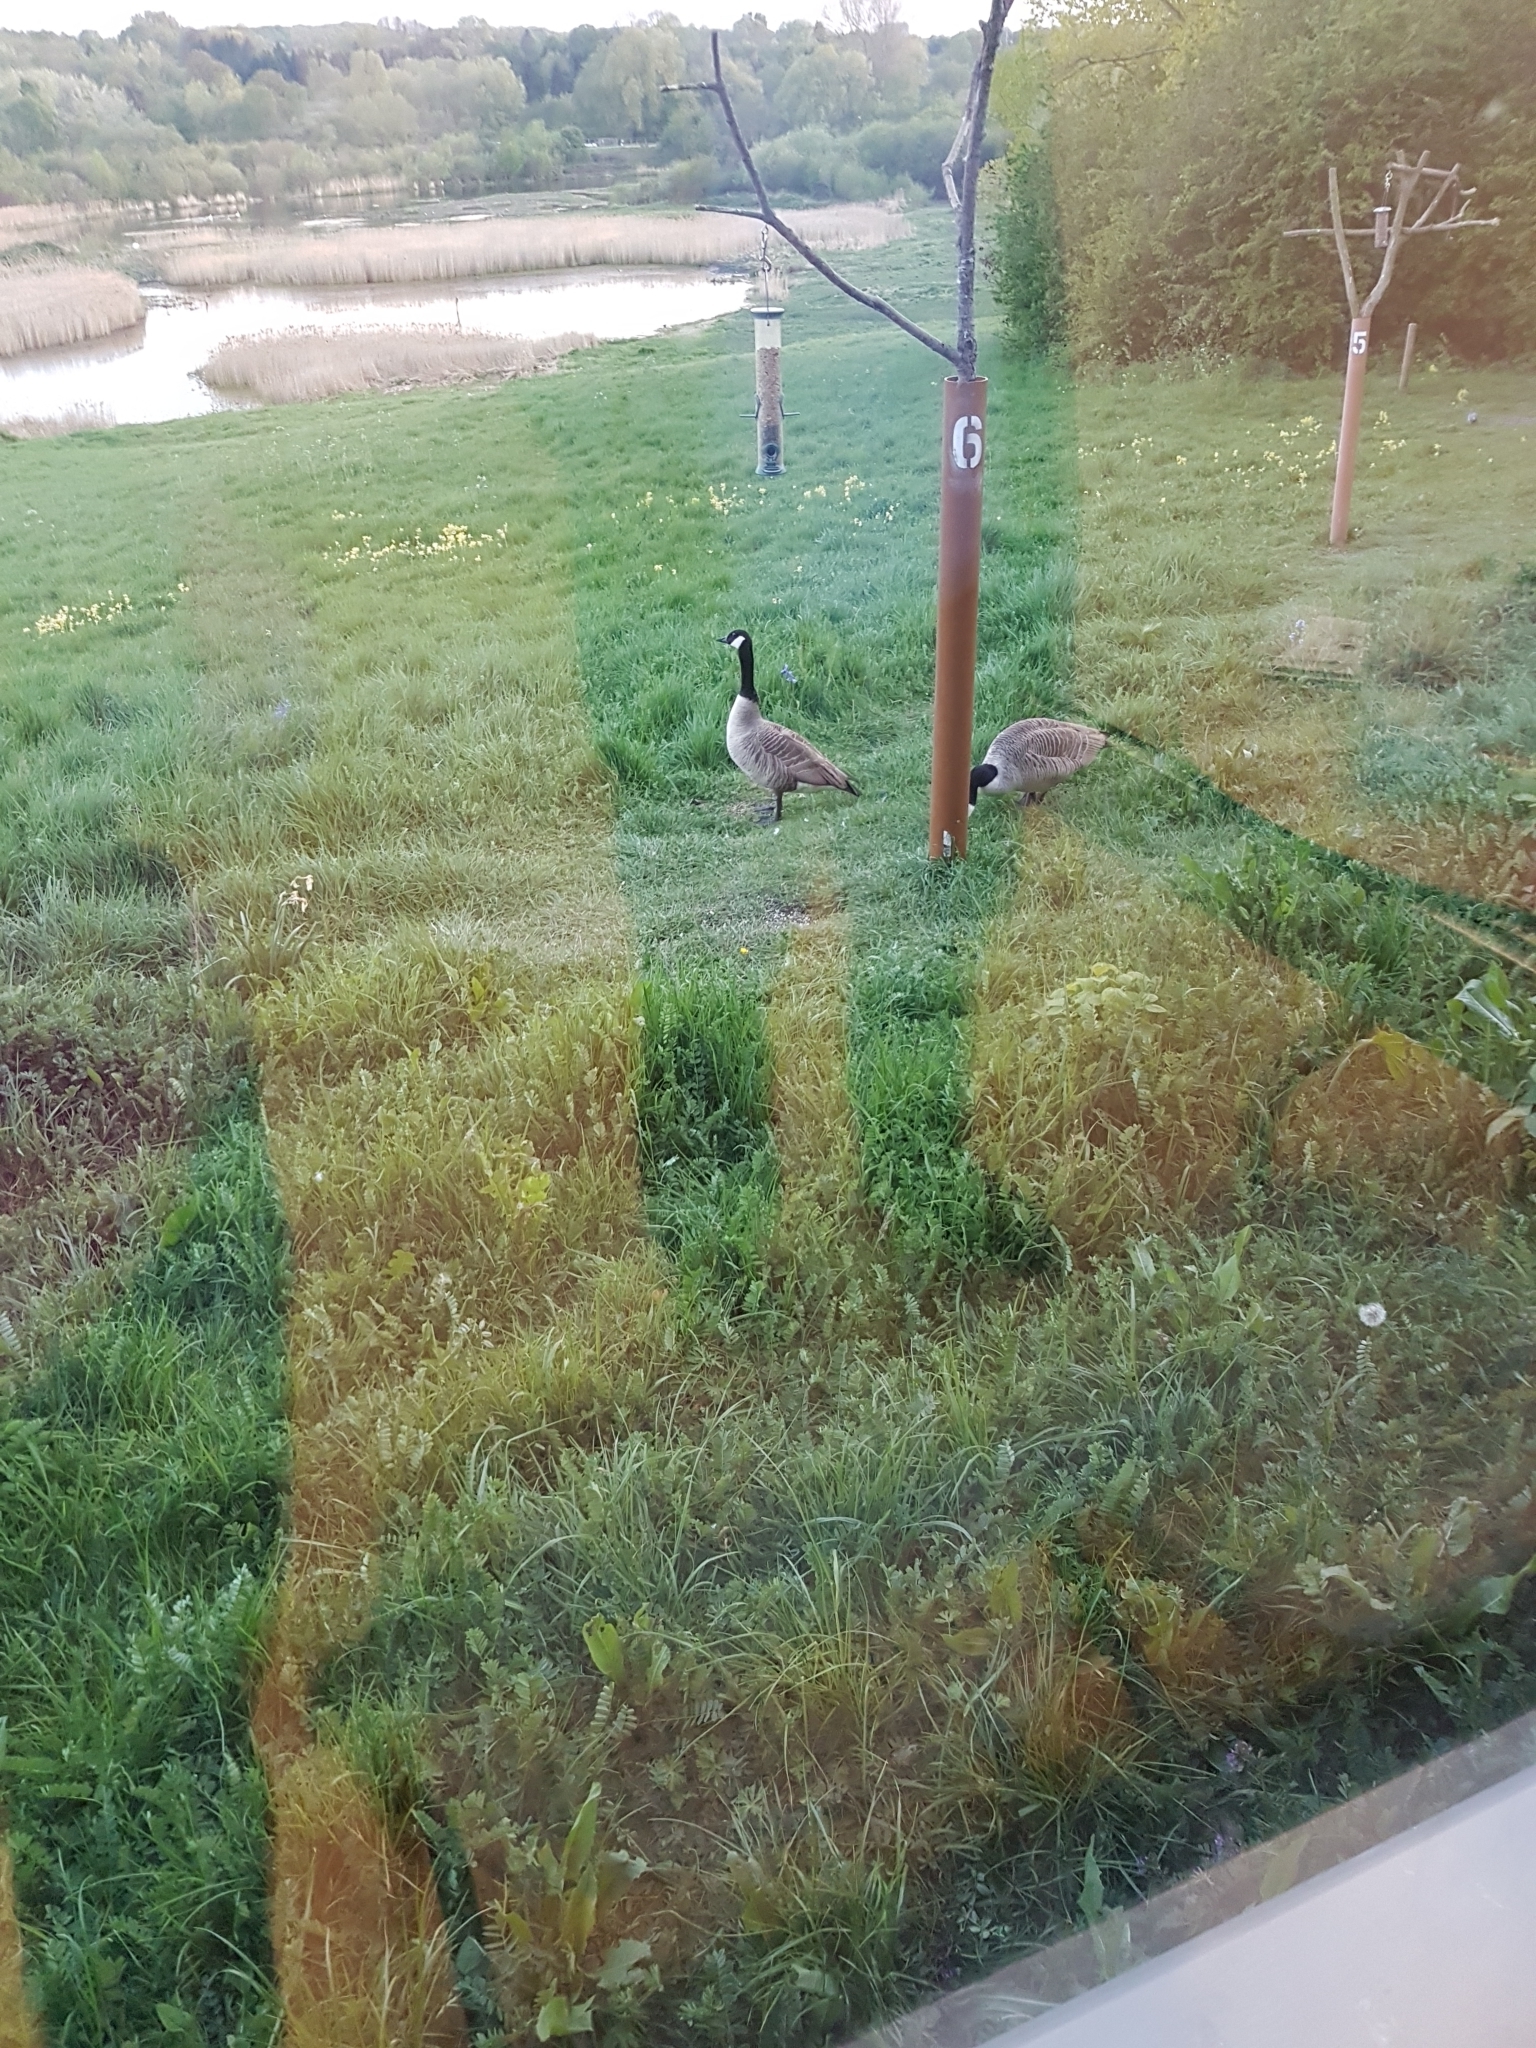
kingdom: Animalia
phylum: Chordata
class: Aves
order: Anseriformes
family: Anatidae
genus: Branta
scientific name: Branta canadensis
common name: Canada goose
